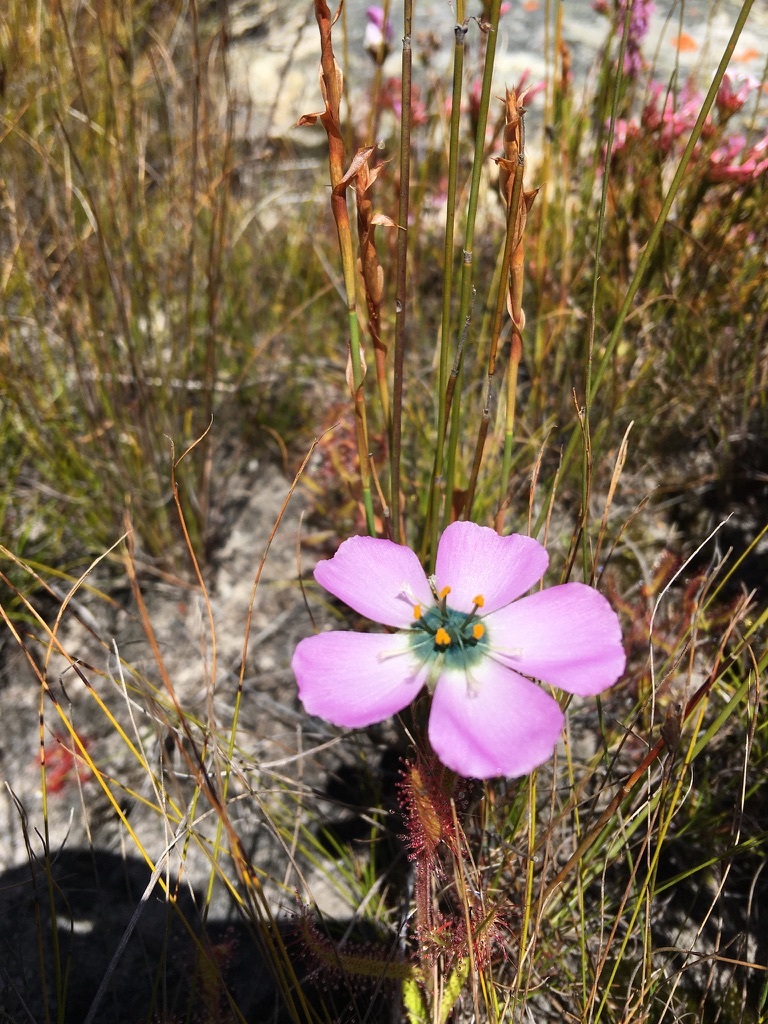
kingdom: Plantae
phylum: Tracheophyta
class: Magnoliopsida
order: Caryophyllales
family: Droseraceae
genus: Drosera
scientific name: Drosera cistiflora
